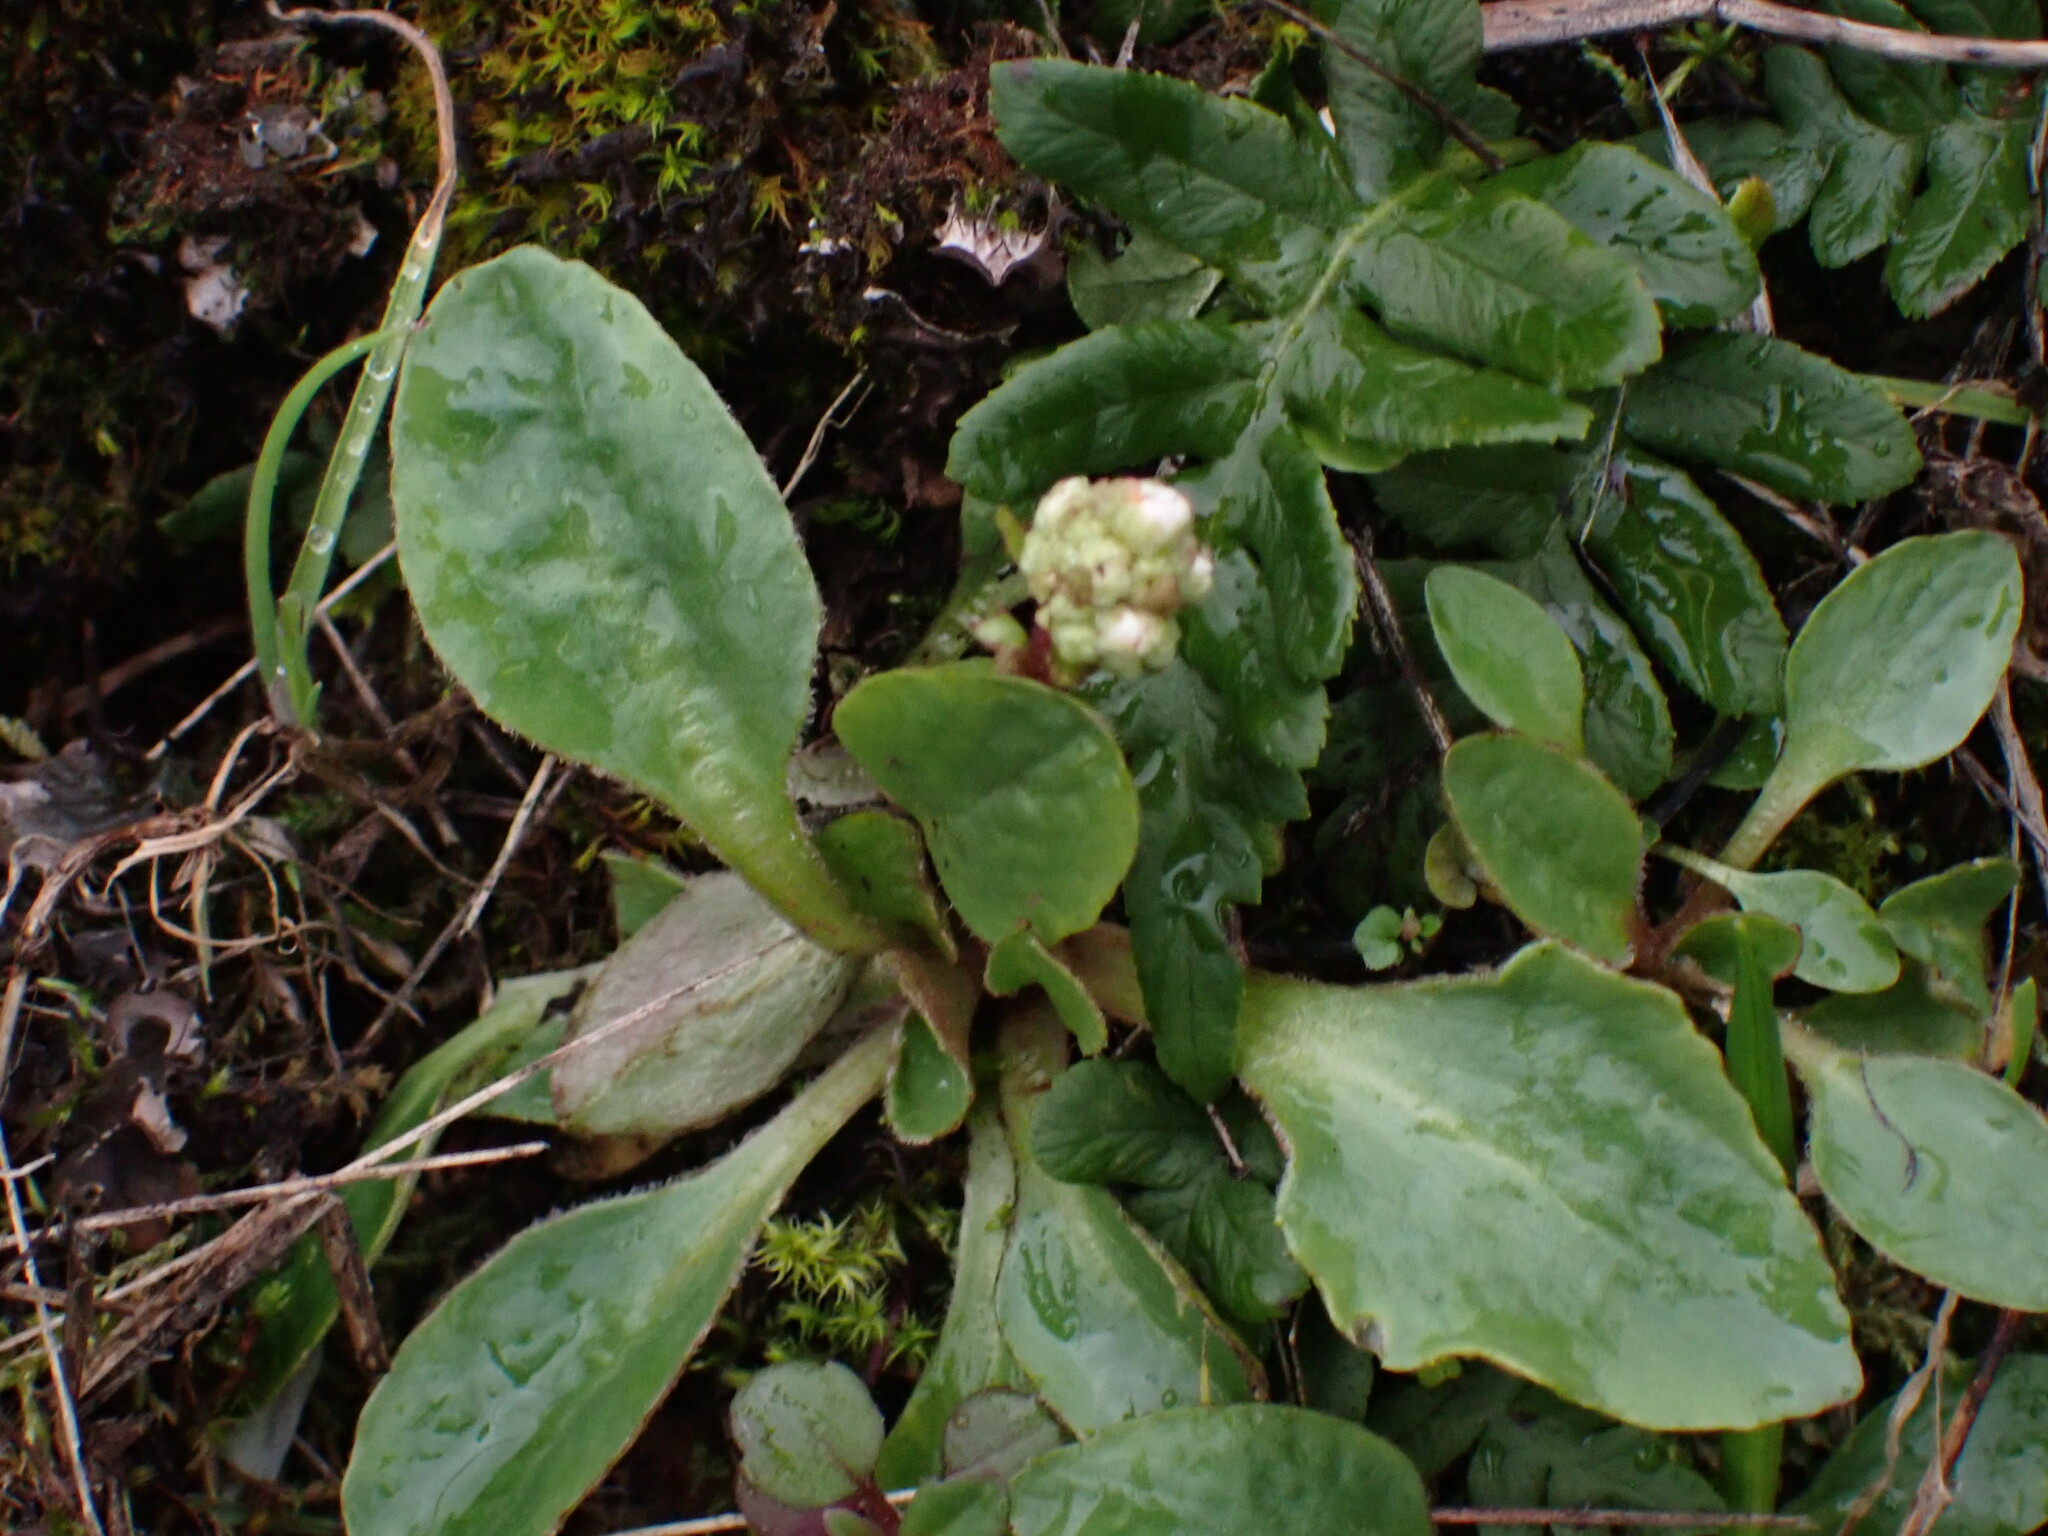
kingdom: Plantae
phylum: Tracheophyta
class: Magnoliopsida
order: Saxifragales
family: Saxifragaceae
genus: Micranthes
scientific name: Micranthes integrifolia
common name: Wholeleaf saxifrage
